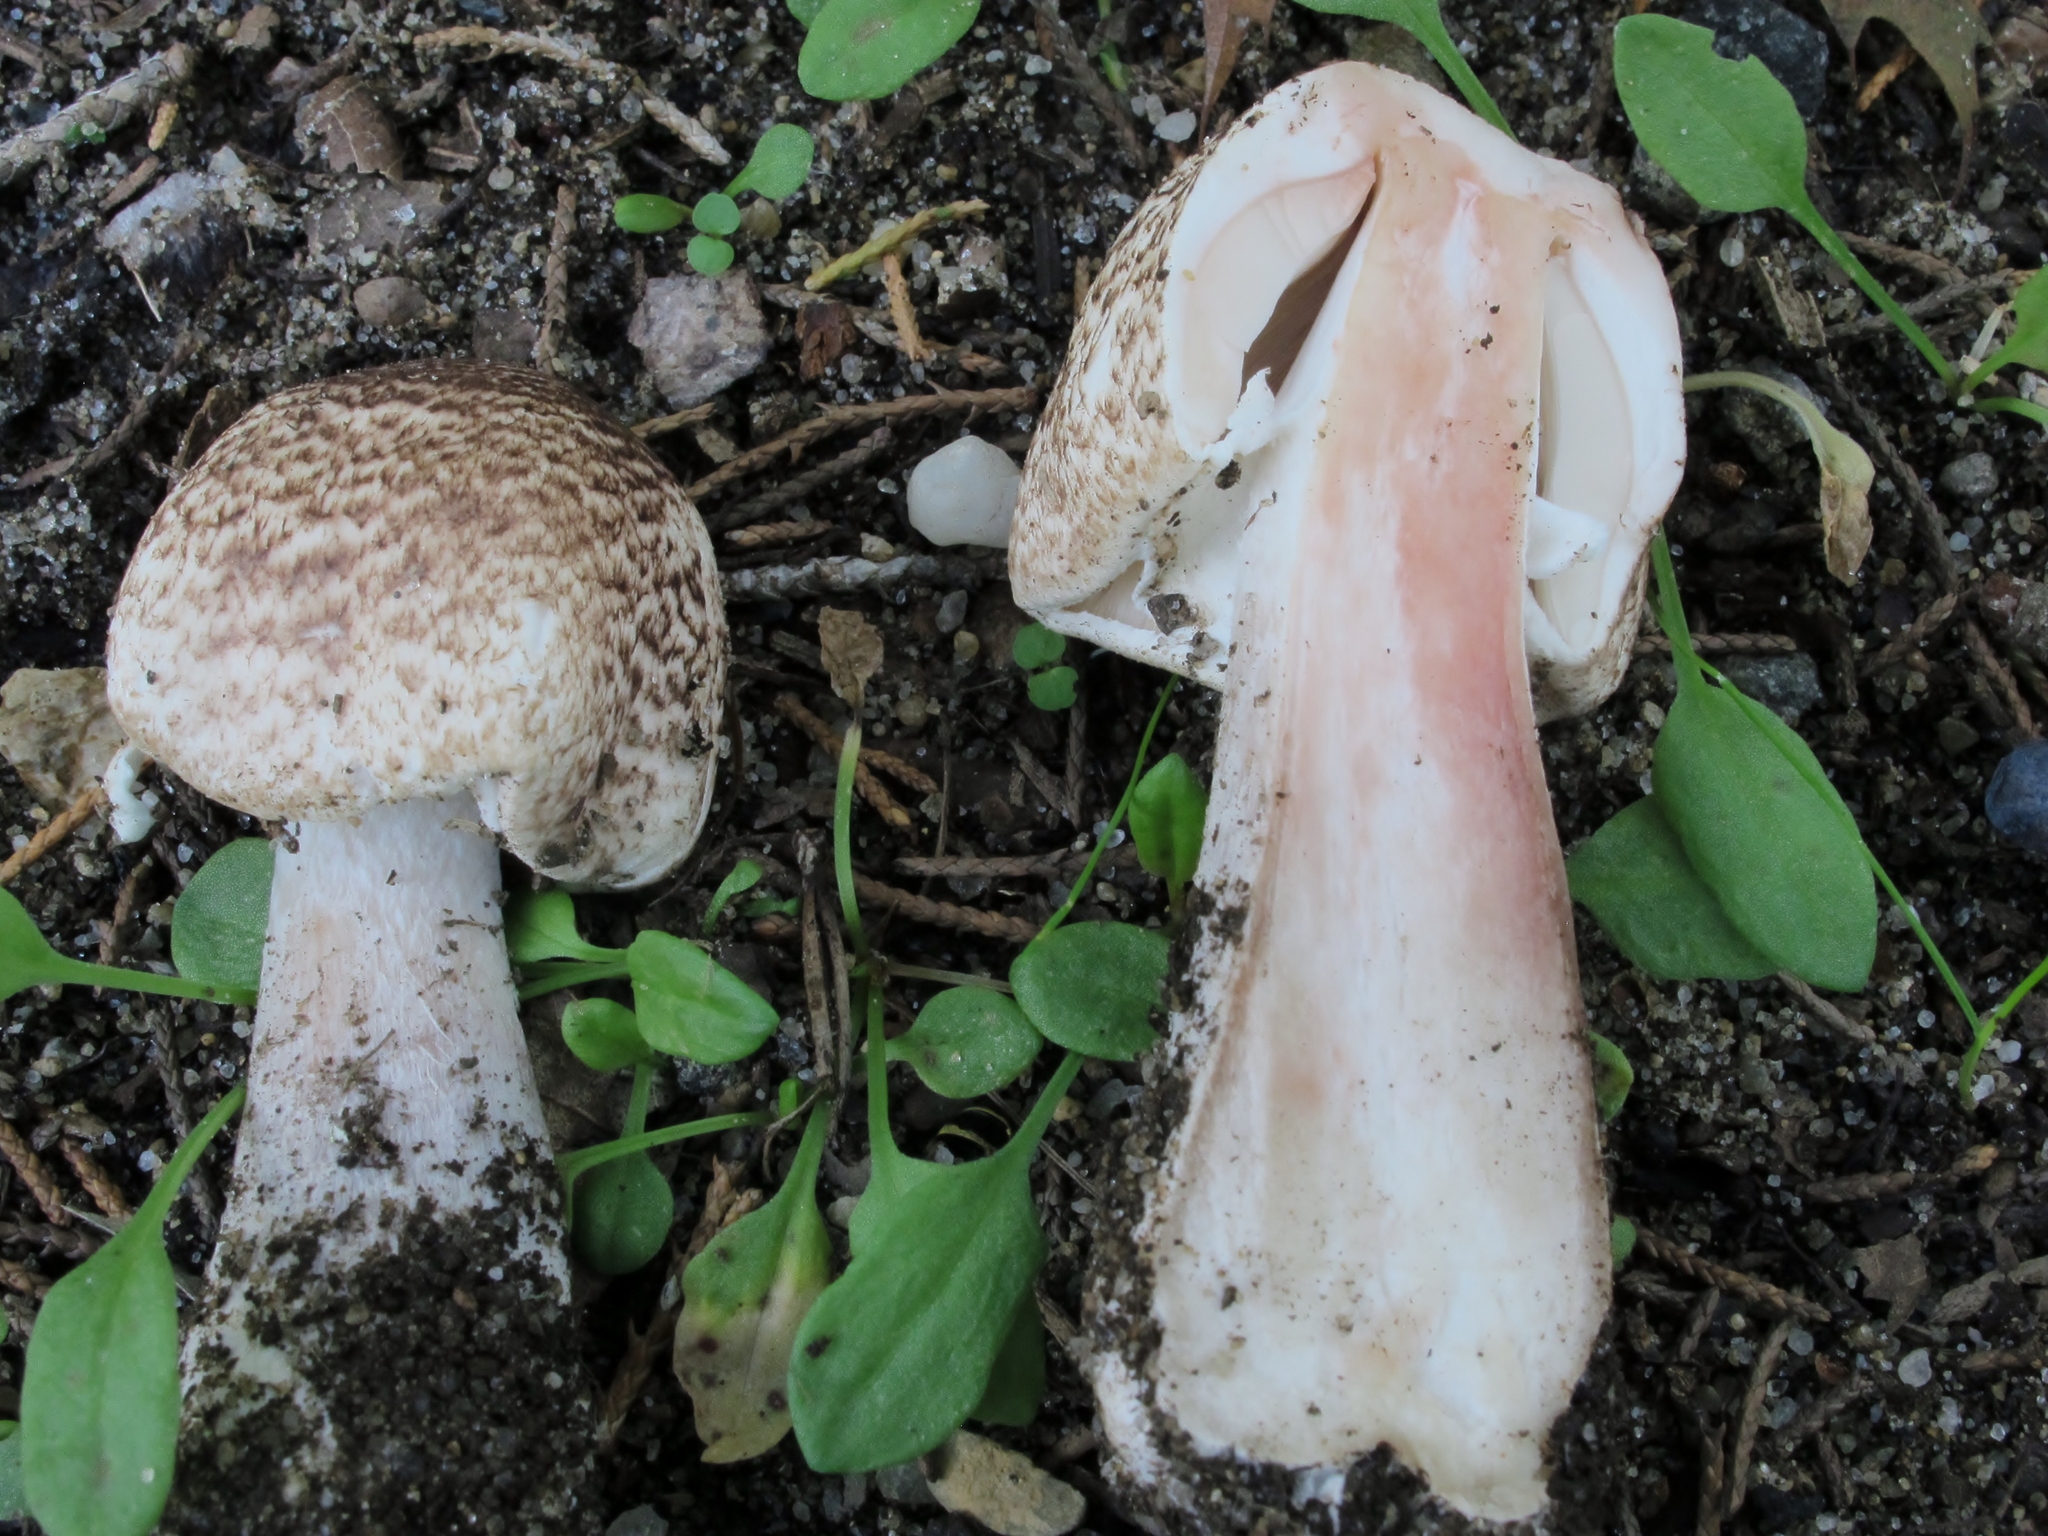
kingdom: Fungi
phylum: Basidiomycota
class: Agaricomycetes
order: Agaricales
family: Agaricaceae
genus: Agaricus
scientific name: Agaricus sylvaticus
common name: Blushing wood mushroom
